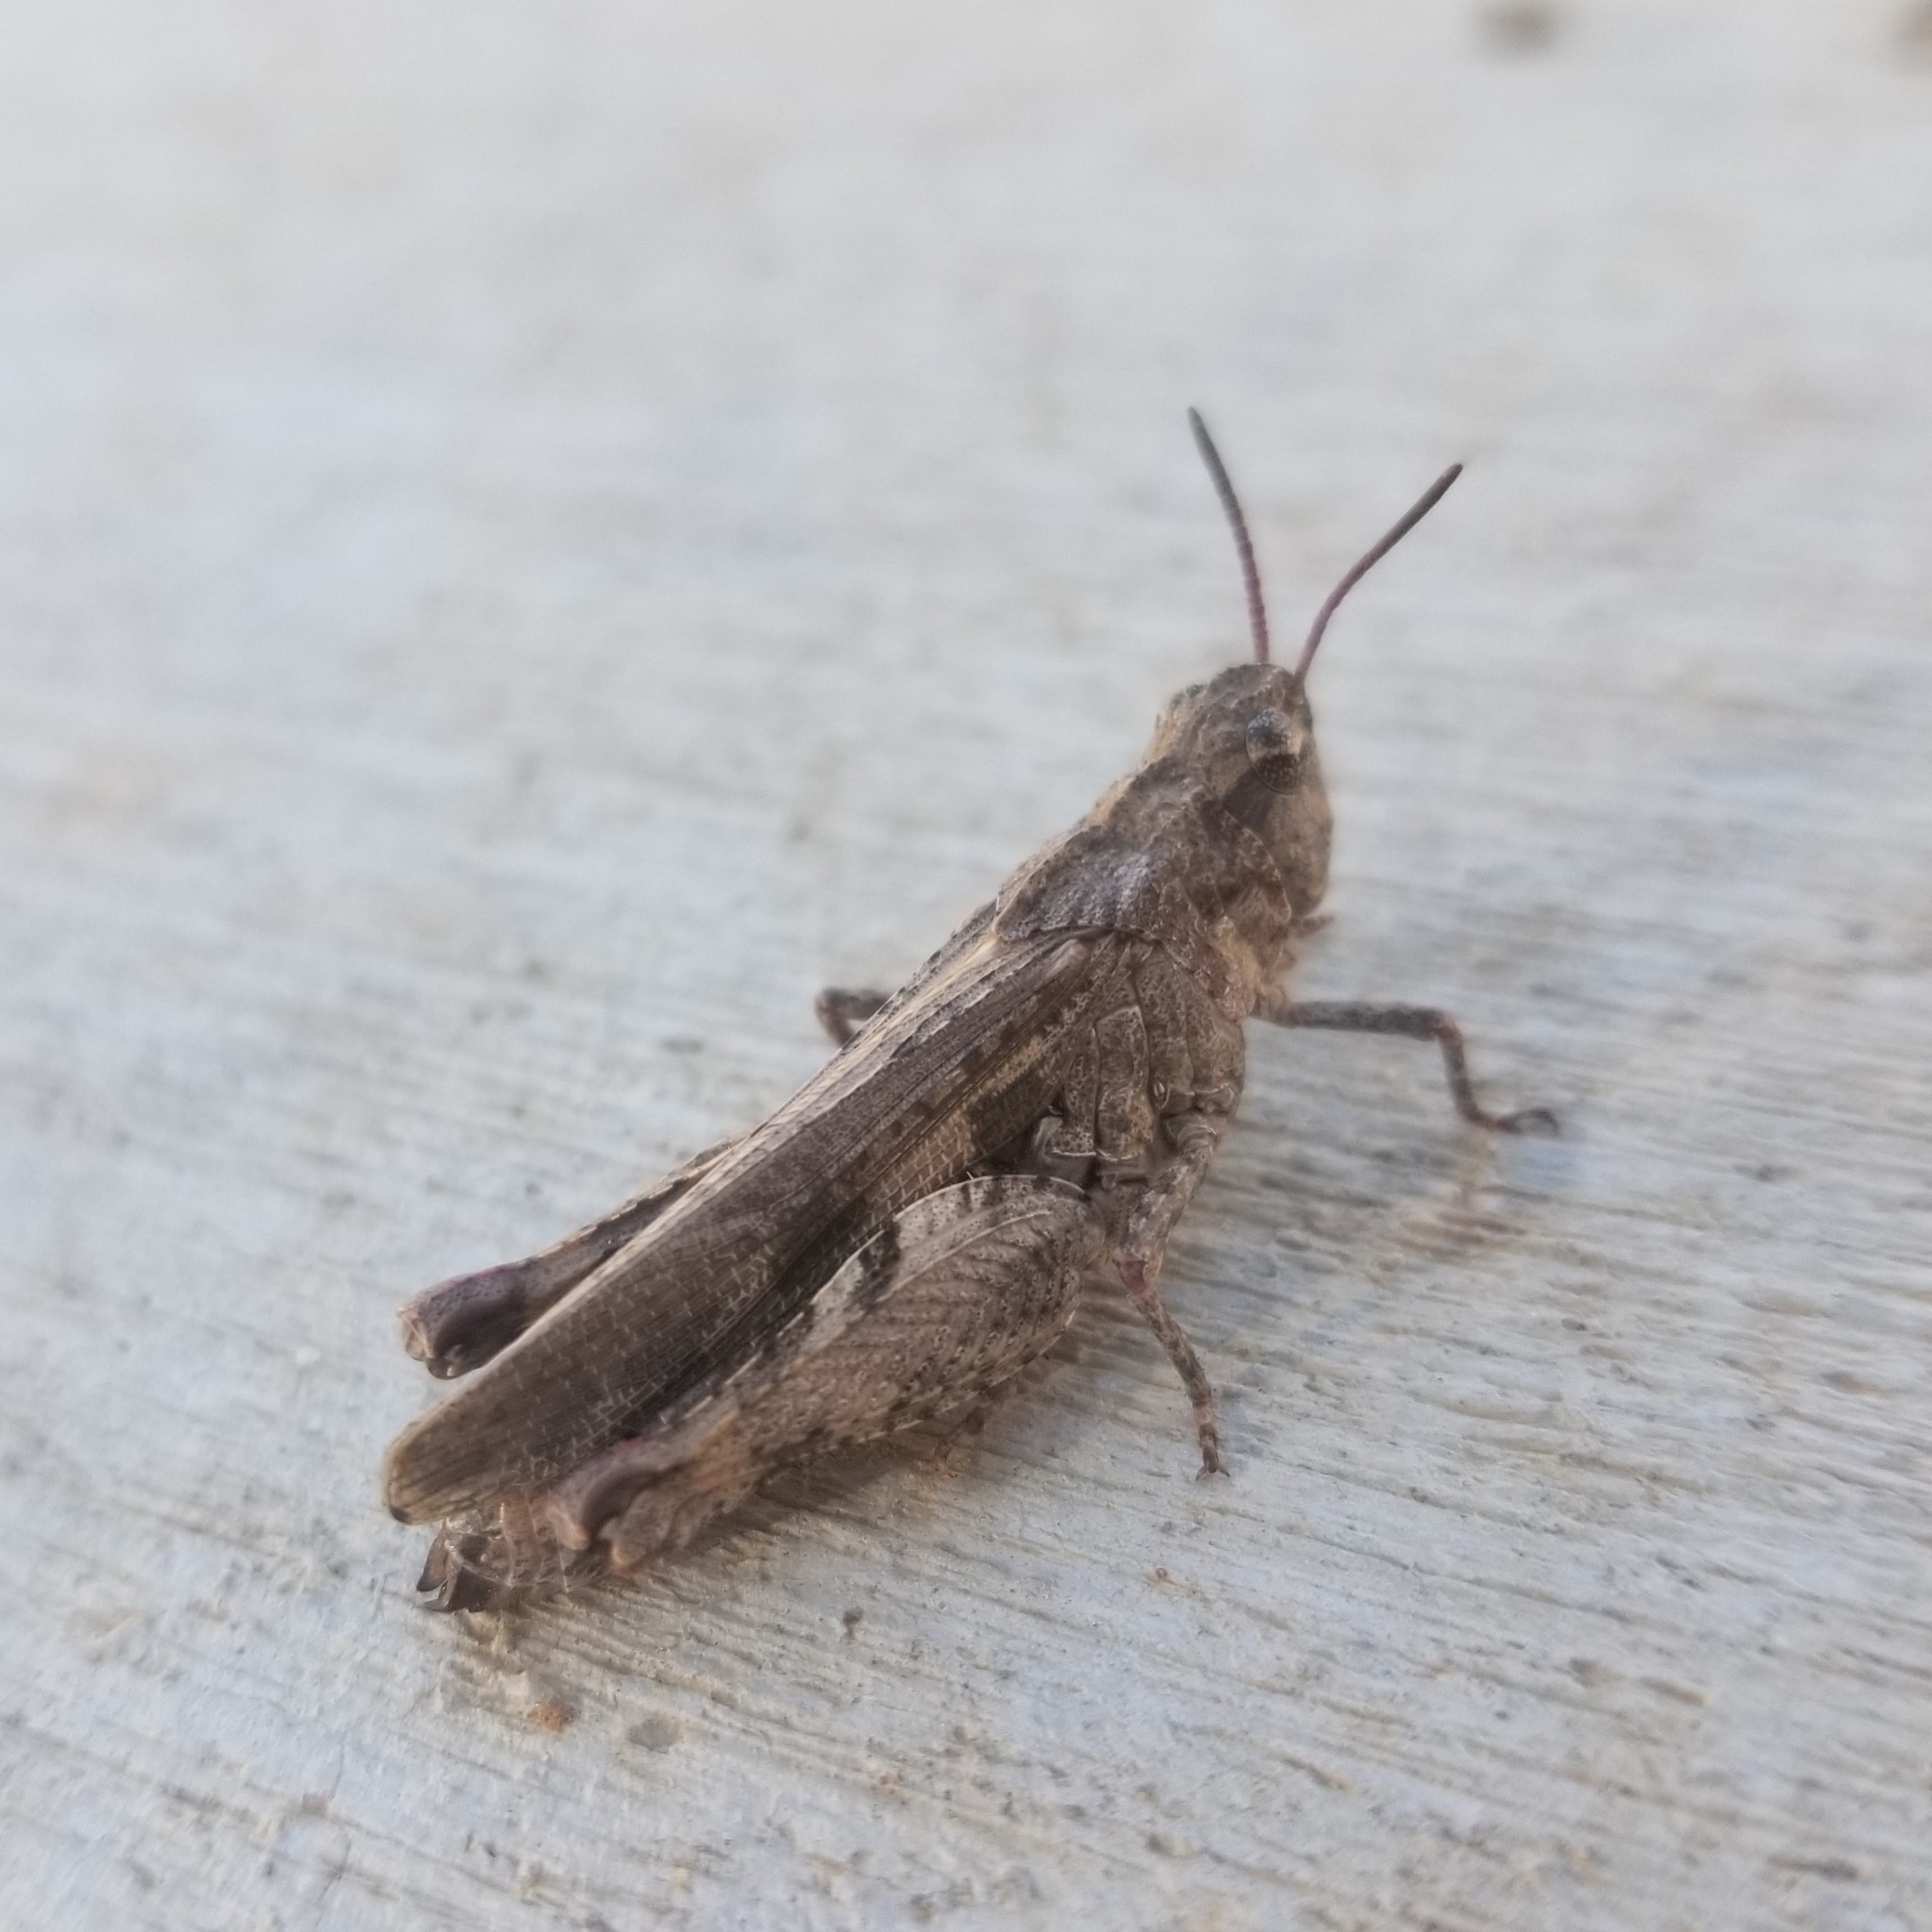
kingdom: Animalia
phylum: Arthropoda
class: Insecta
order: Orthoptera
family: Acrididae
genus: Chimarocephala
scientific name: Chimarocephala pacifica
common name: Painted meadow grasshopper
